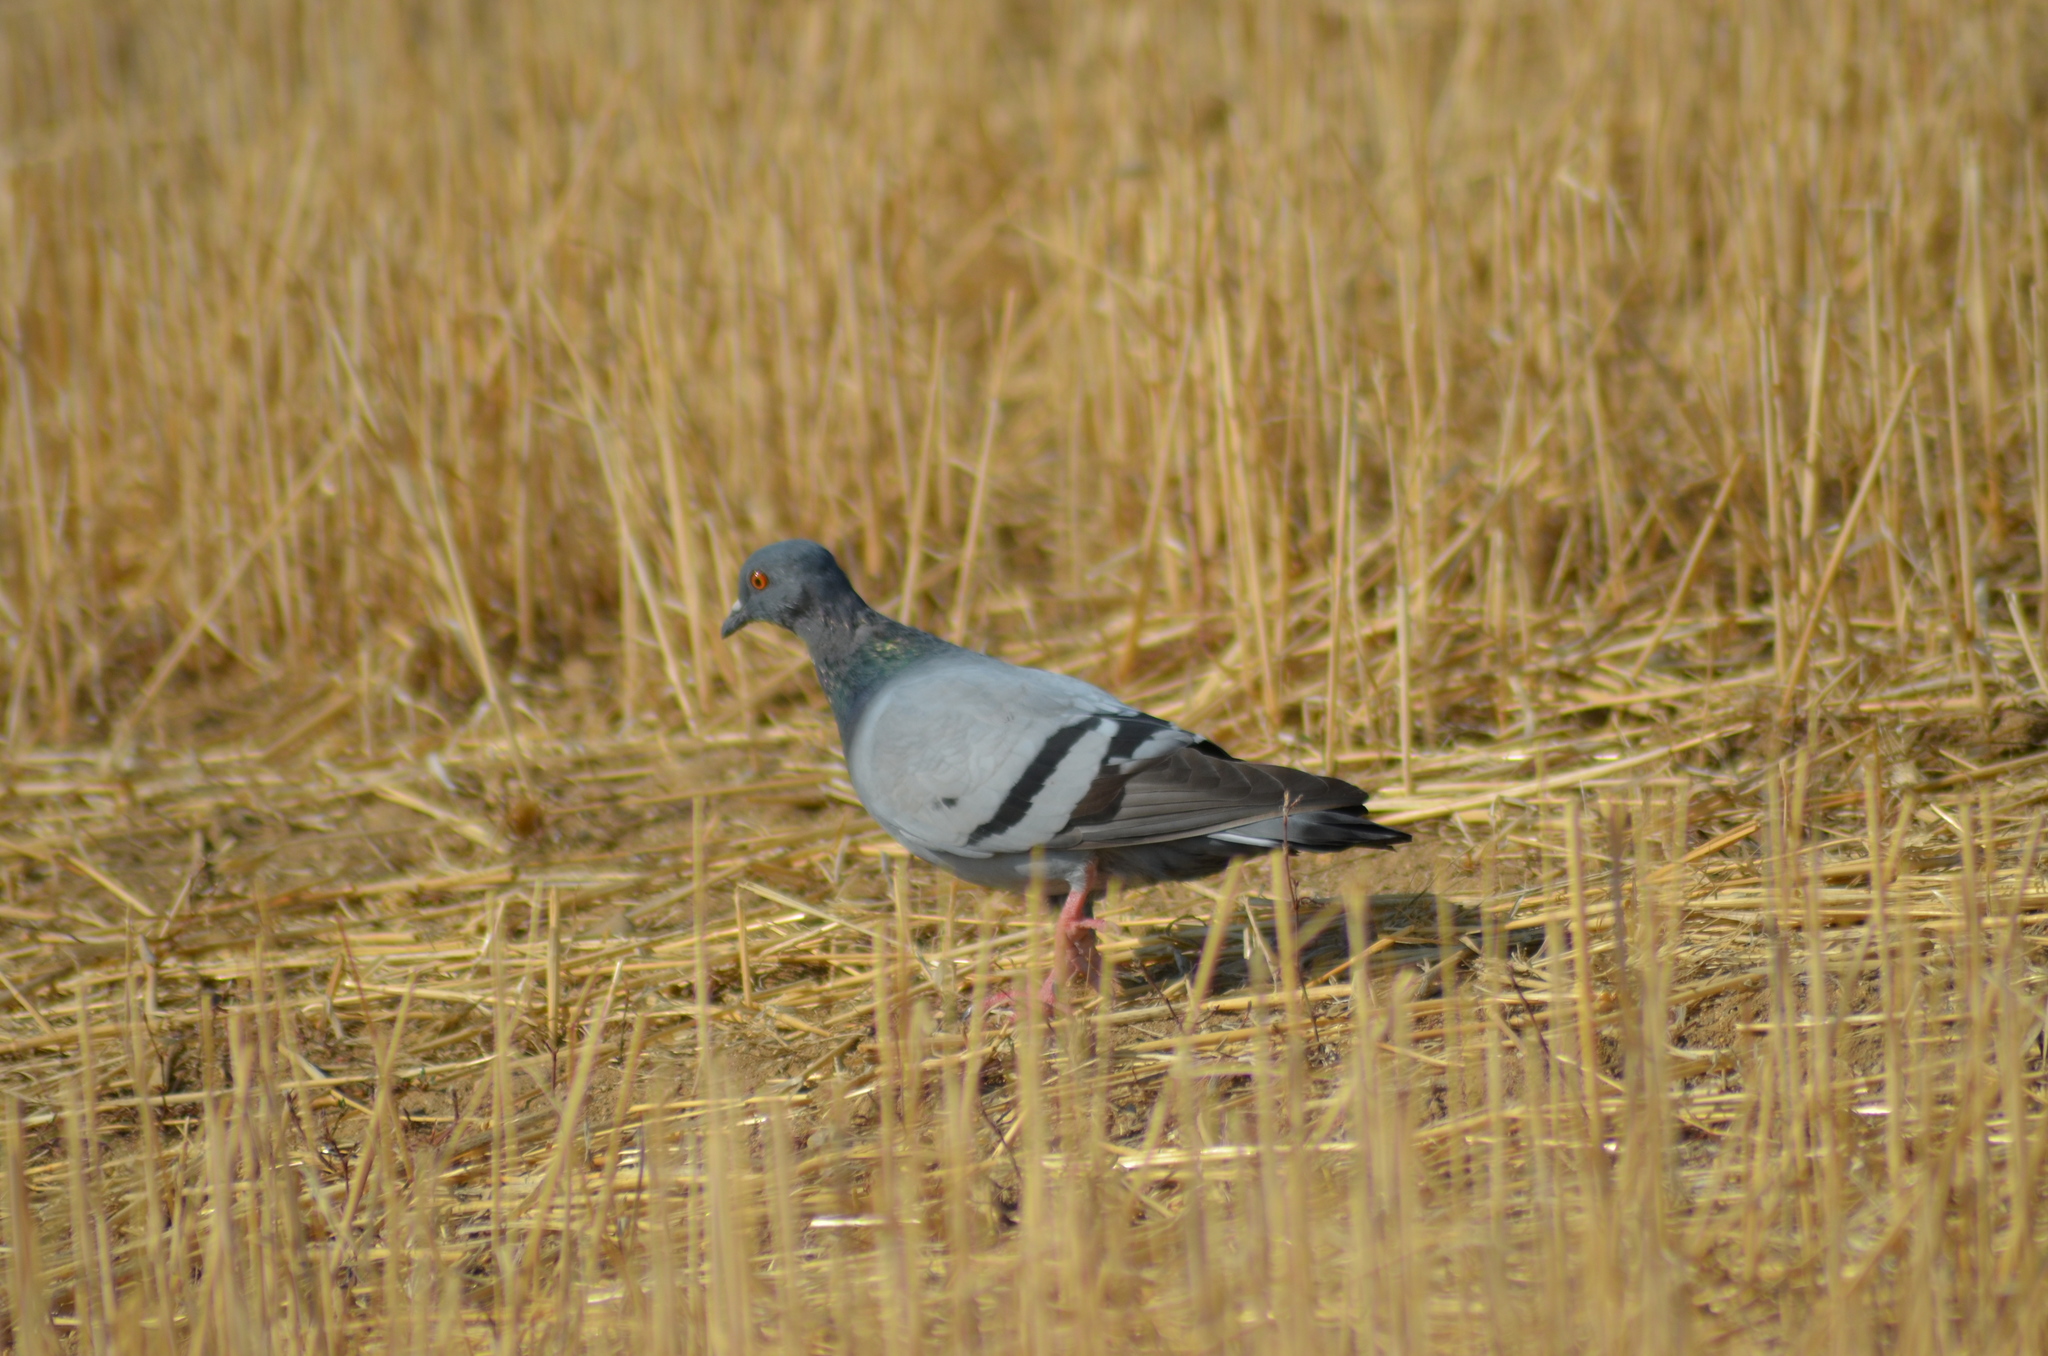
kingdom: Animalia
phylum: Chordata
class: Aves
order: Columbiformes
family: Columbidae
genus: Columba
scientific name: Columba livia
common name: Rock pigeon
